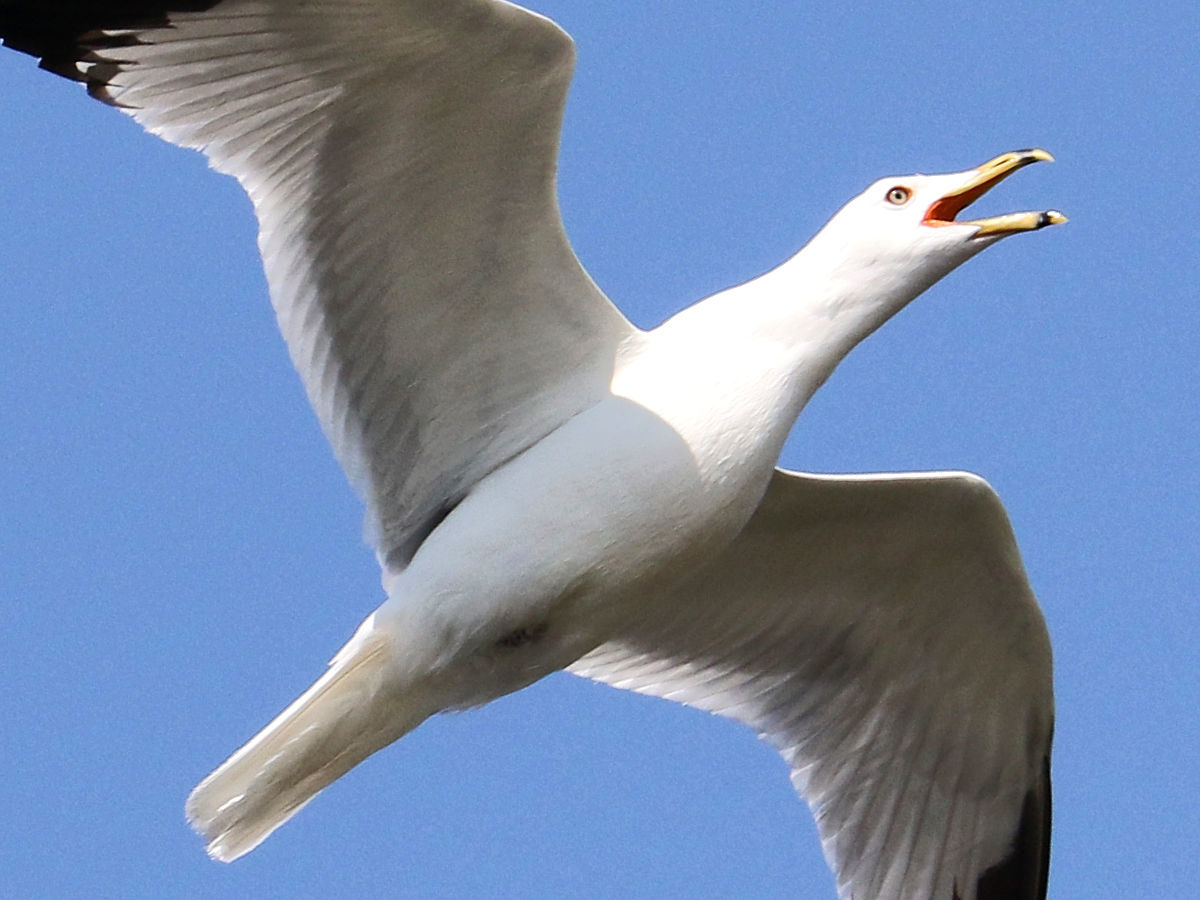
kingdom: Animalia
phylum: Chordata
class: Aves
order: Charadriiformes
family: Laridae
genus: Larus
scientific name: Larus delawarensis
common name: Ring-billed gull
